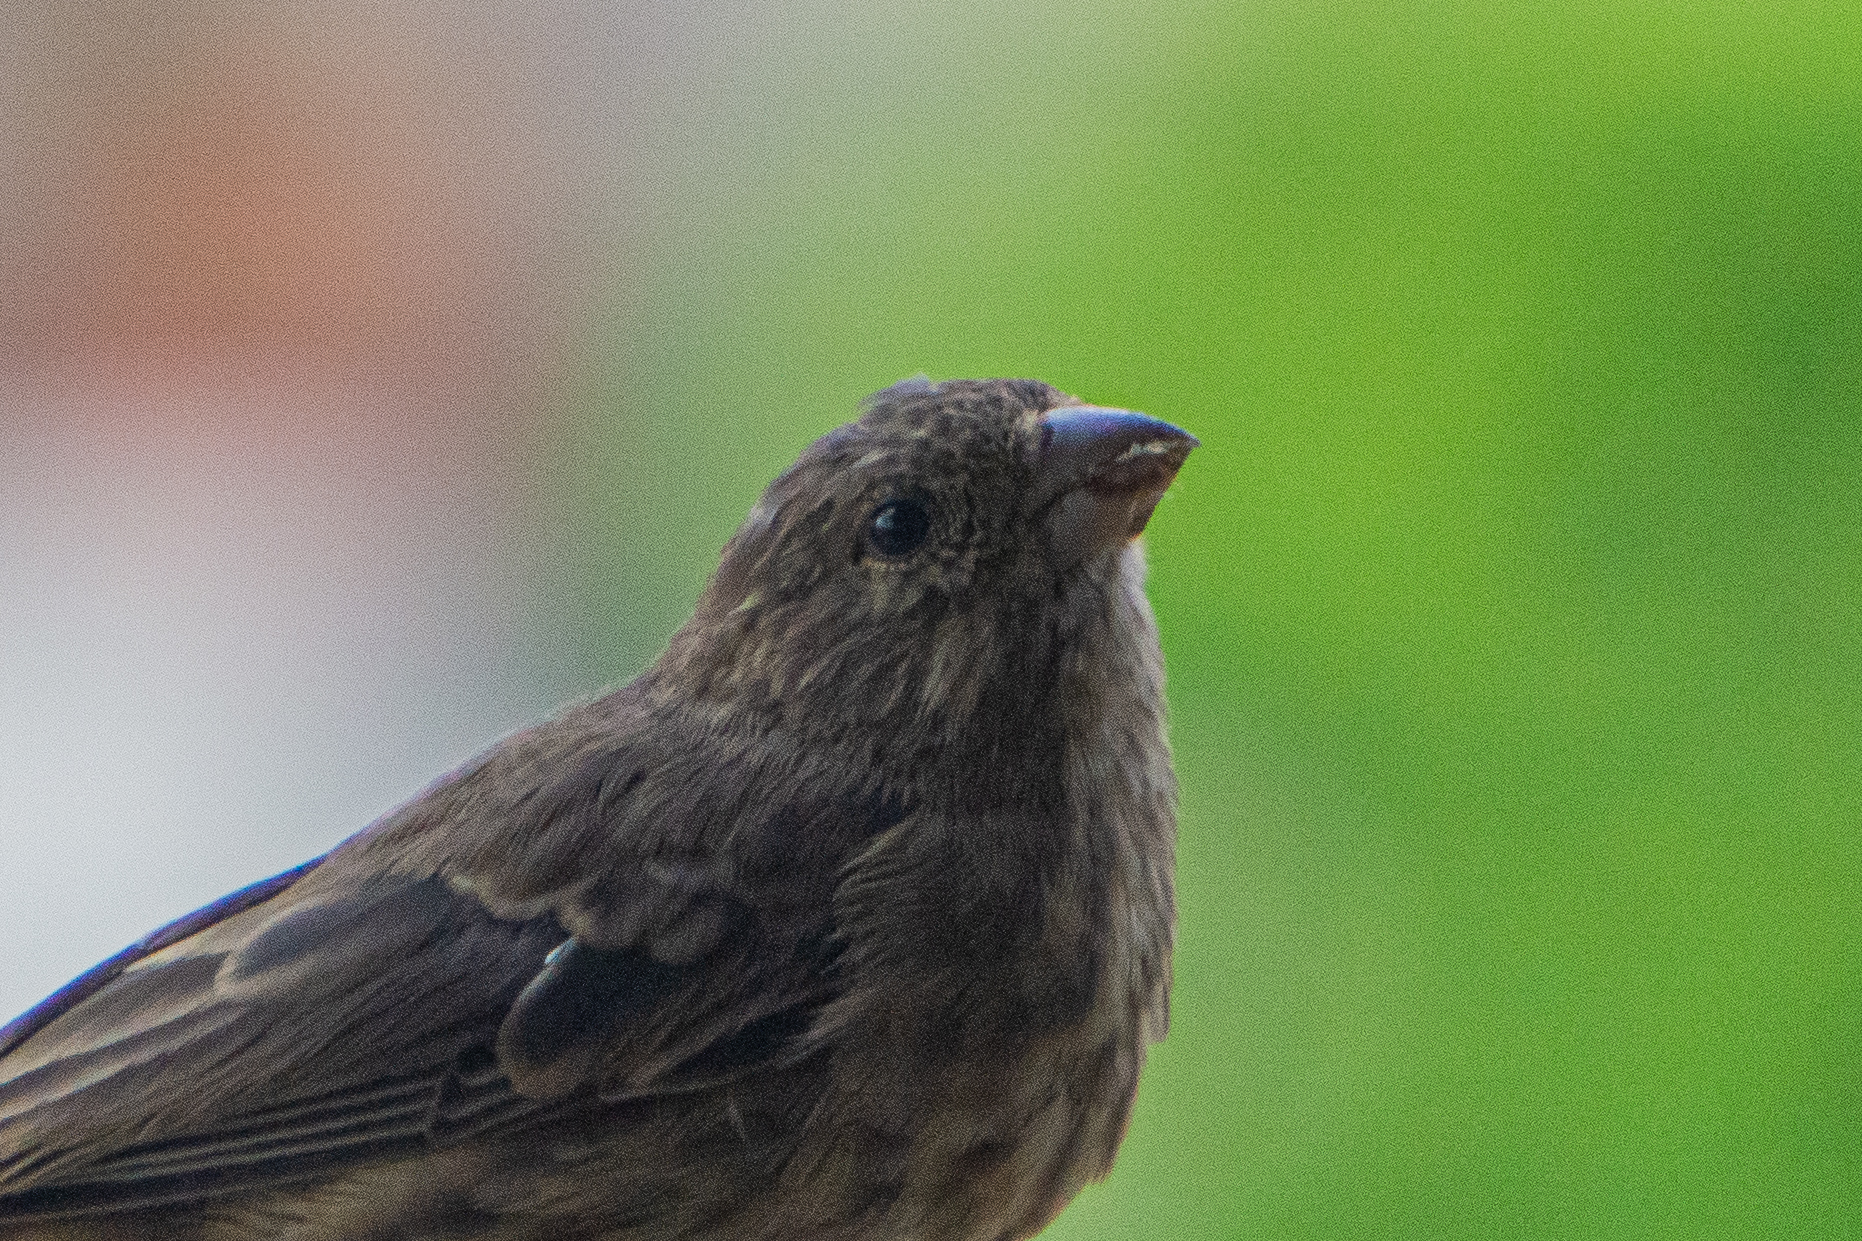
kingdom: Animalia
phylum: Chordata
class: Aves
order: Passeriformes
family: Fringillidae
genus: Haemorhous
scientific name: Haemorhous mexicanus
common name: House finch
